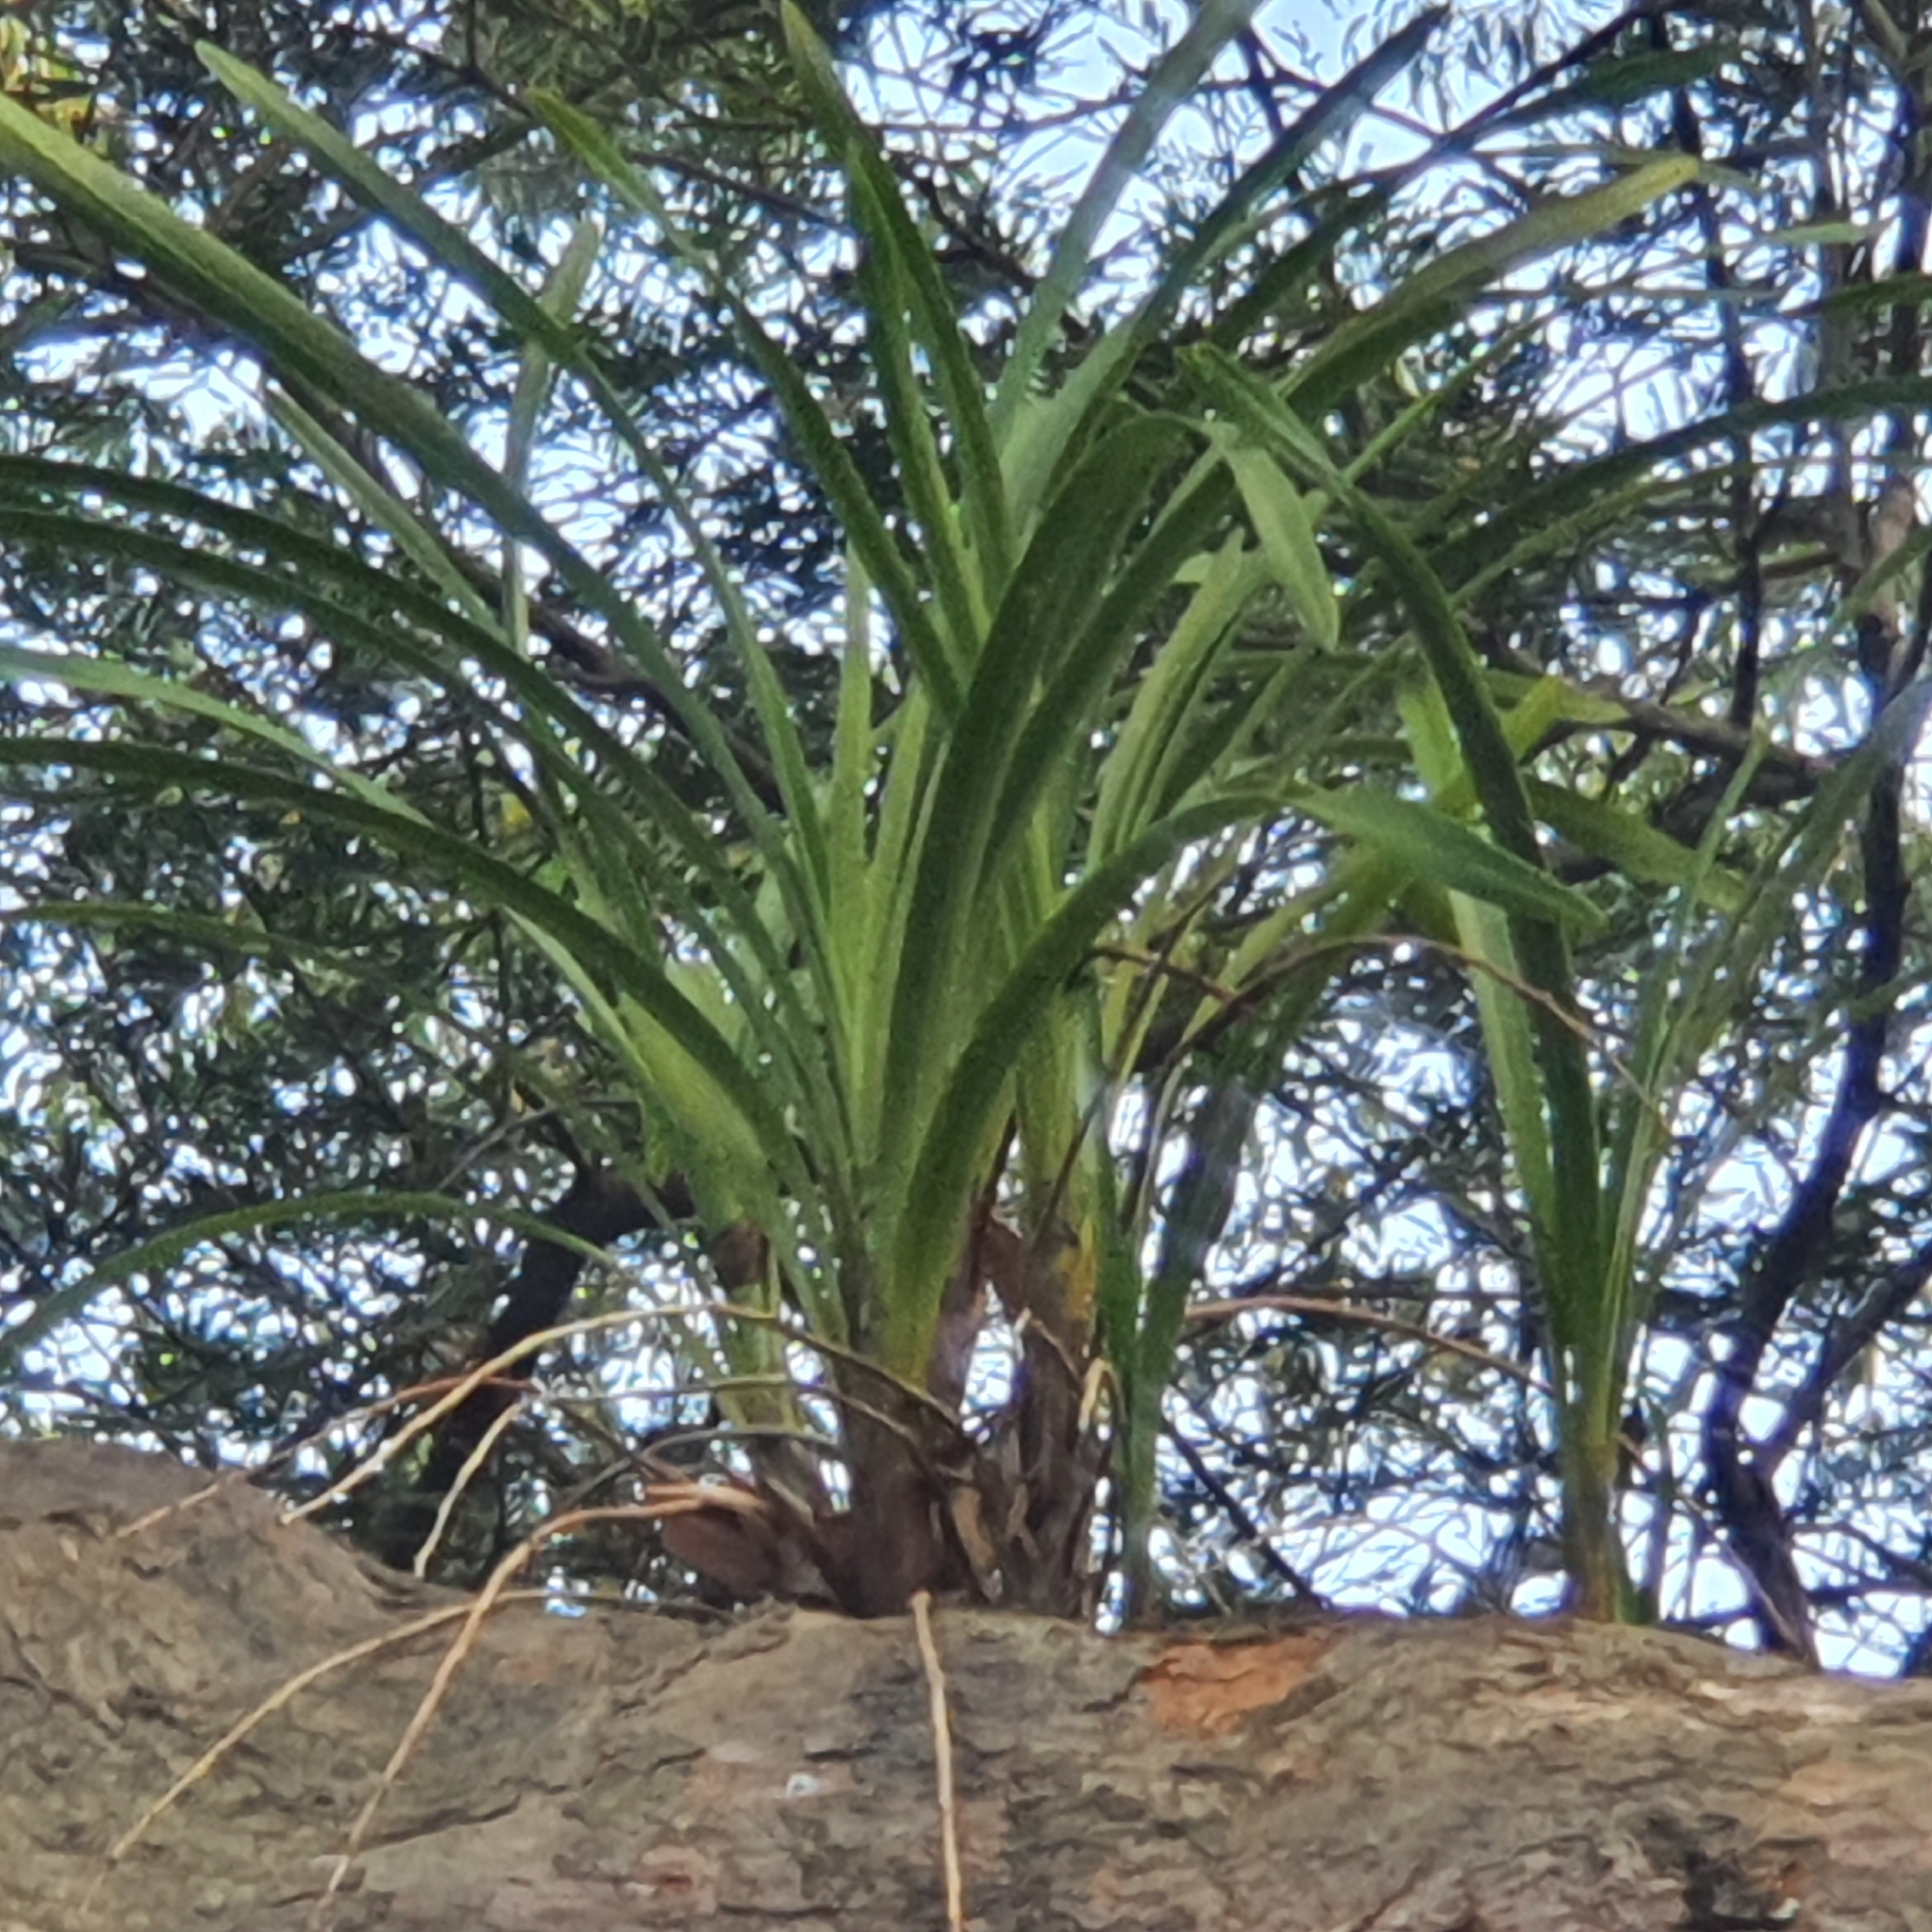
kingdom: Plantae
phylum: Tracheophyta
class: Liliopsida
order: Asparagales
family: Orchidaceae
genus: Cymbidium
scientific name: Cymbidium suave
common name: Snake orchid
